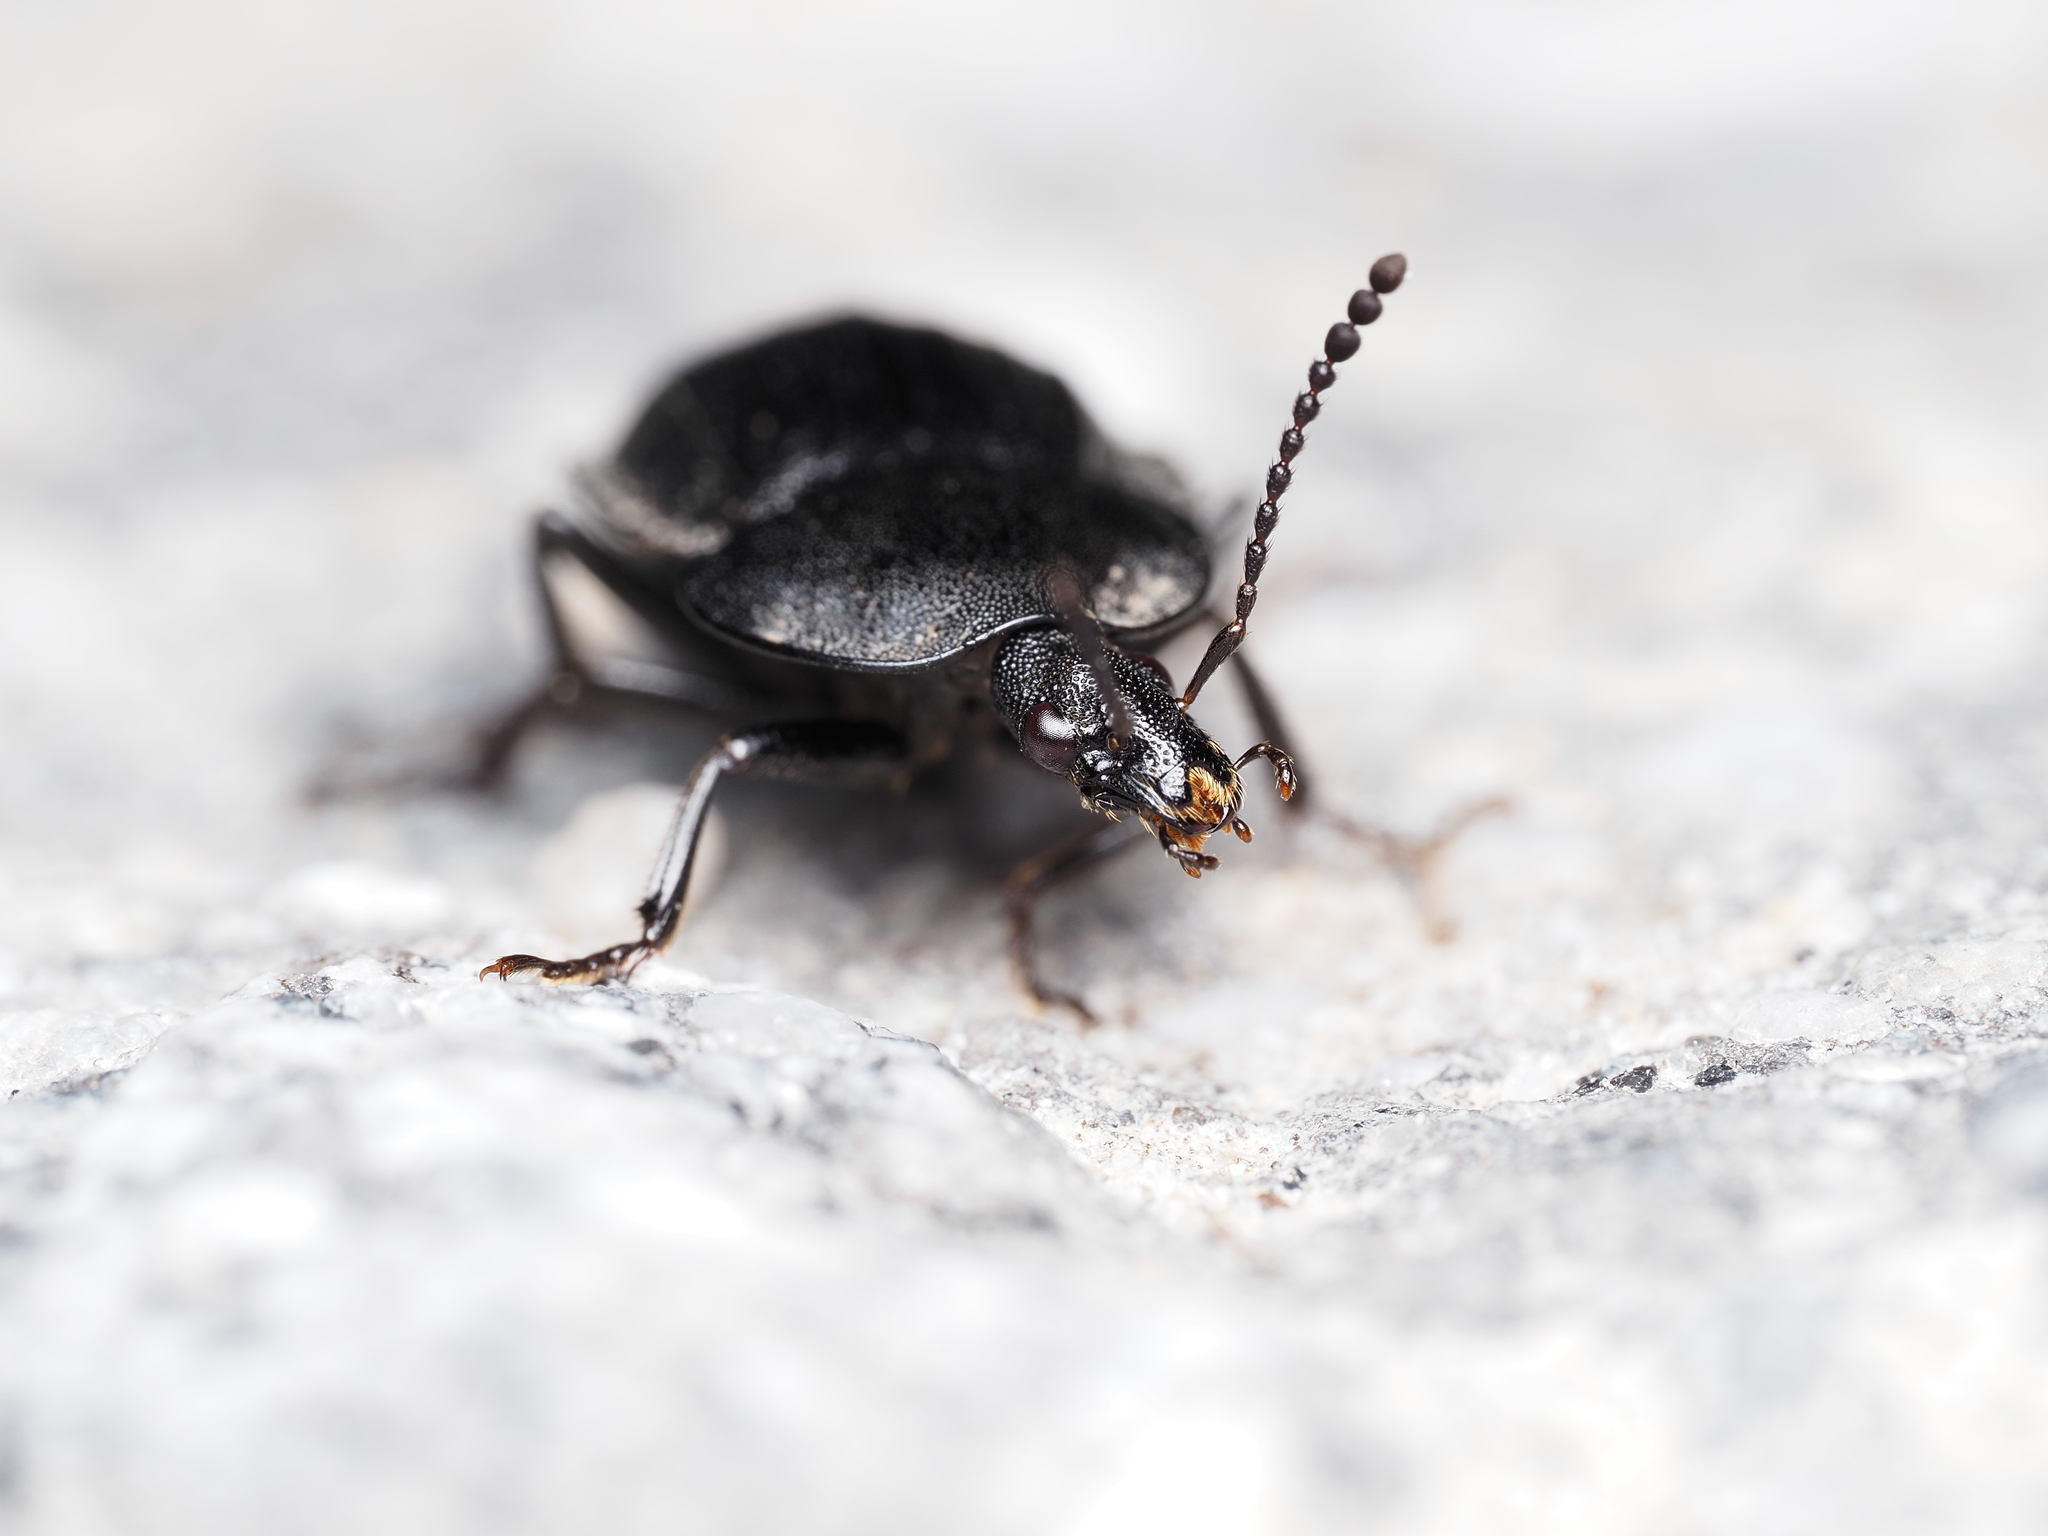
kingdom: Animalia
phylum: Arthropoda
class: Insecta
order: Coleoptera
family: Staphylinidae
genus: Silpha
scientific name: Silpha atrata
